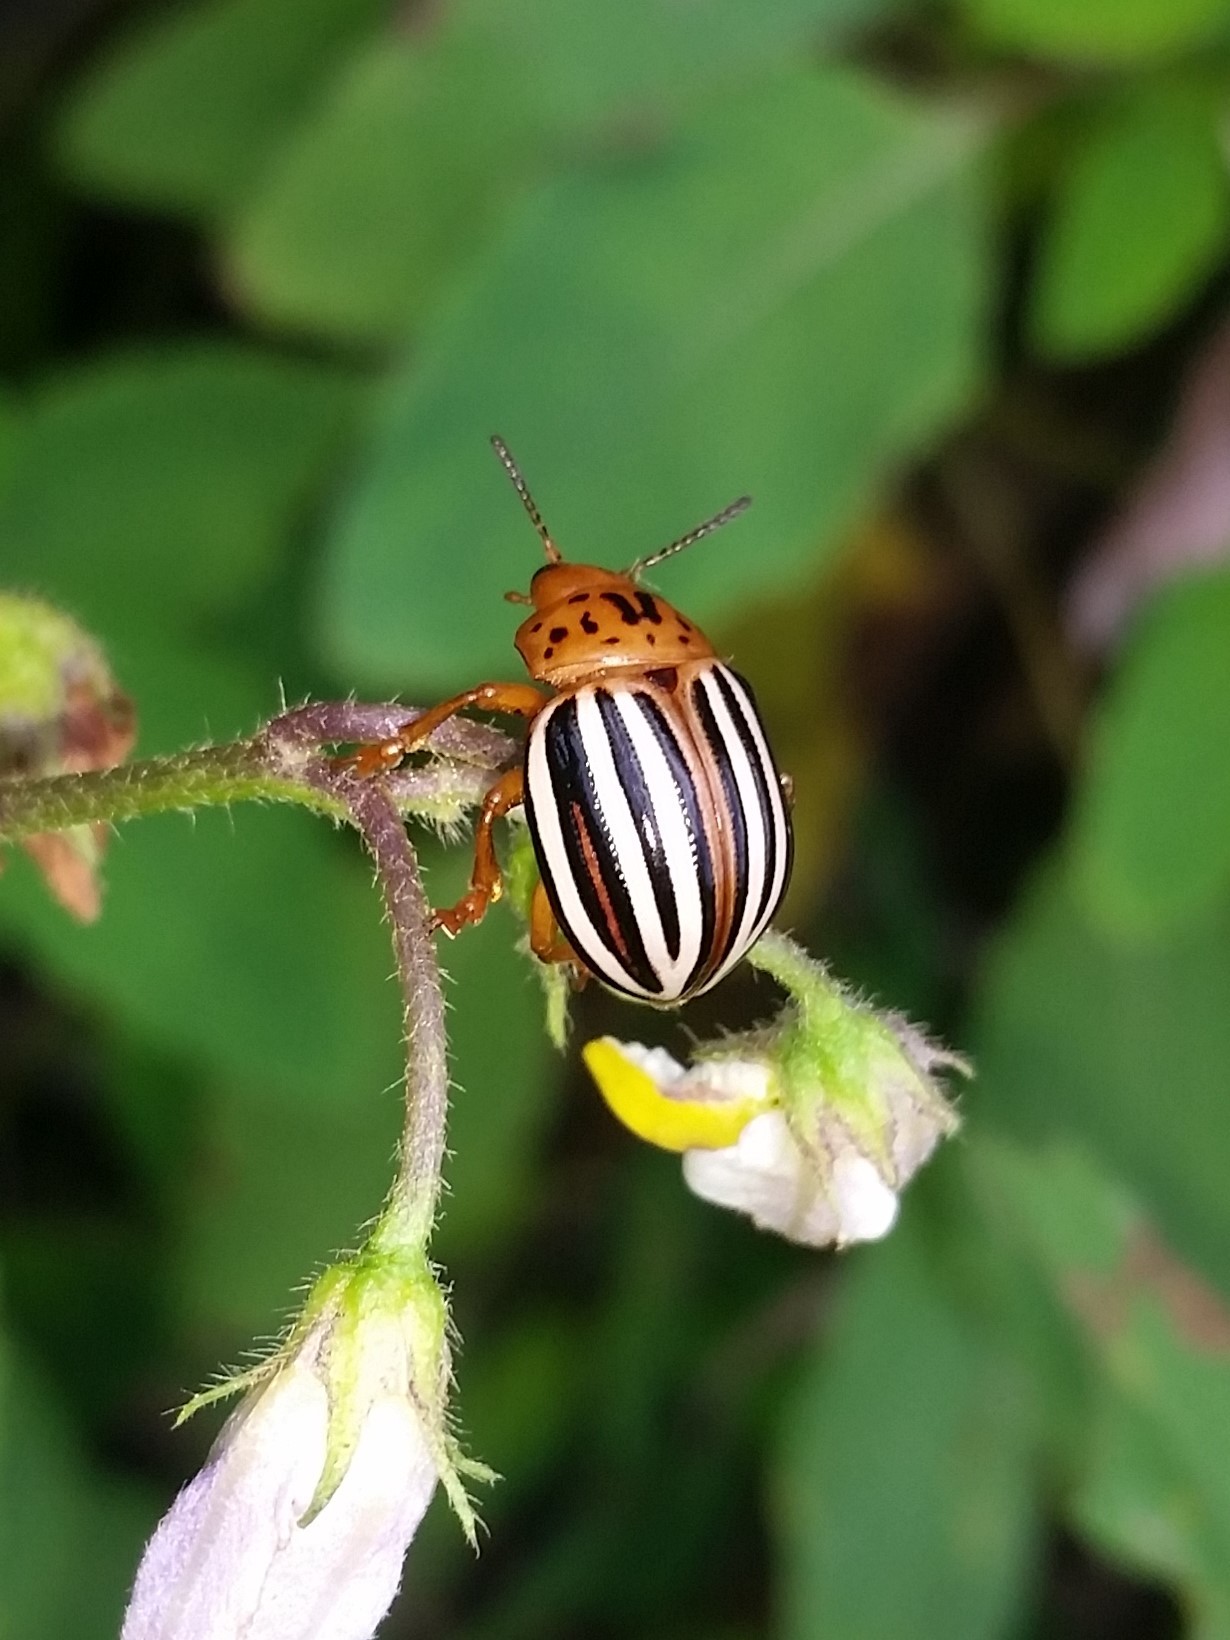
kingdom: Animalia
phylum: Arthropoda
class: Insecta
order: Coleoptera
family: Chrysomelidae
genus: Leptinotarsa
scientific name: Leptinotarsa juncta
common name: False potato beetle
